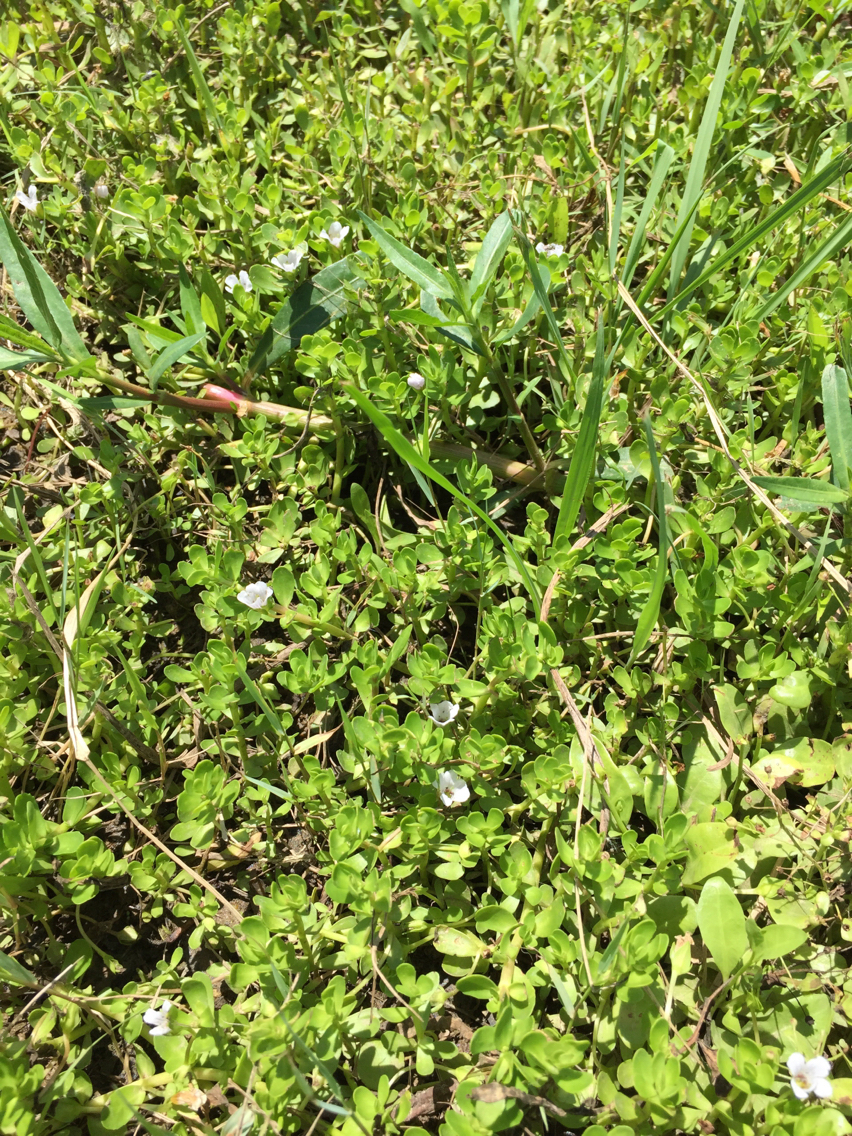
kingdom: Plantae
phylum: Tracheophyta
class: Magnoliopsida
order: Lamiales
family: Plantaginaceae
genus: Bacopa
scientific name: Bacopa monnieri
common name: Indian-pennywort
